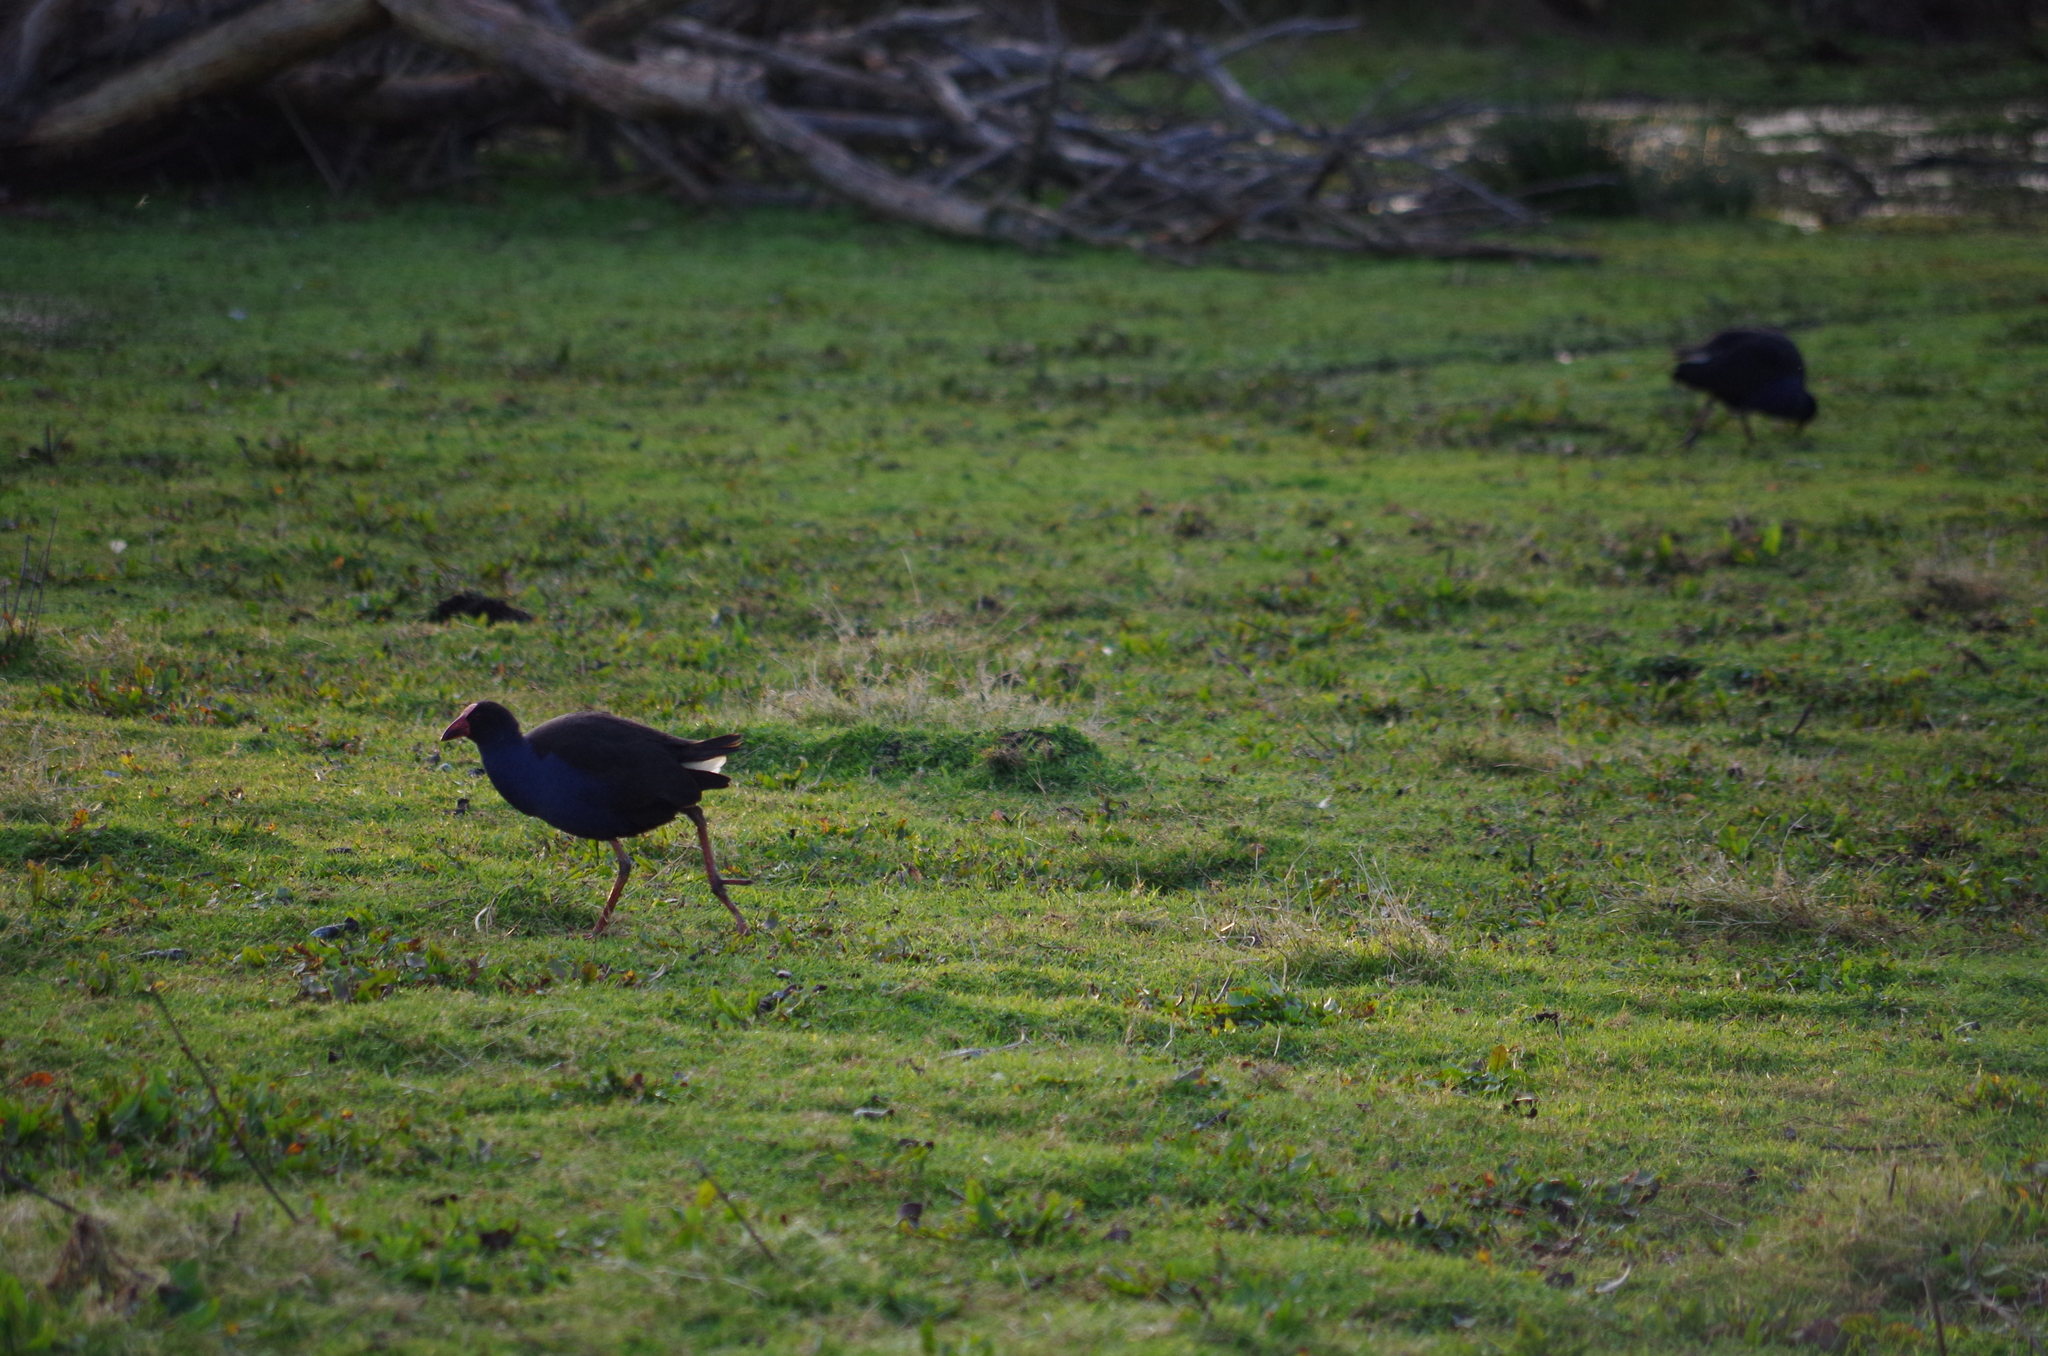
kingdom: Animalia
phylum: Chordata
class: Aves
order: Gruiformes
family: Rallidae
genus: Porphyrio
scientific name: Porphyrio melanotus
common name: Australasian swamphen
